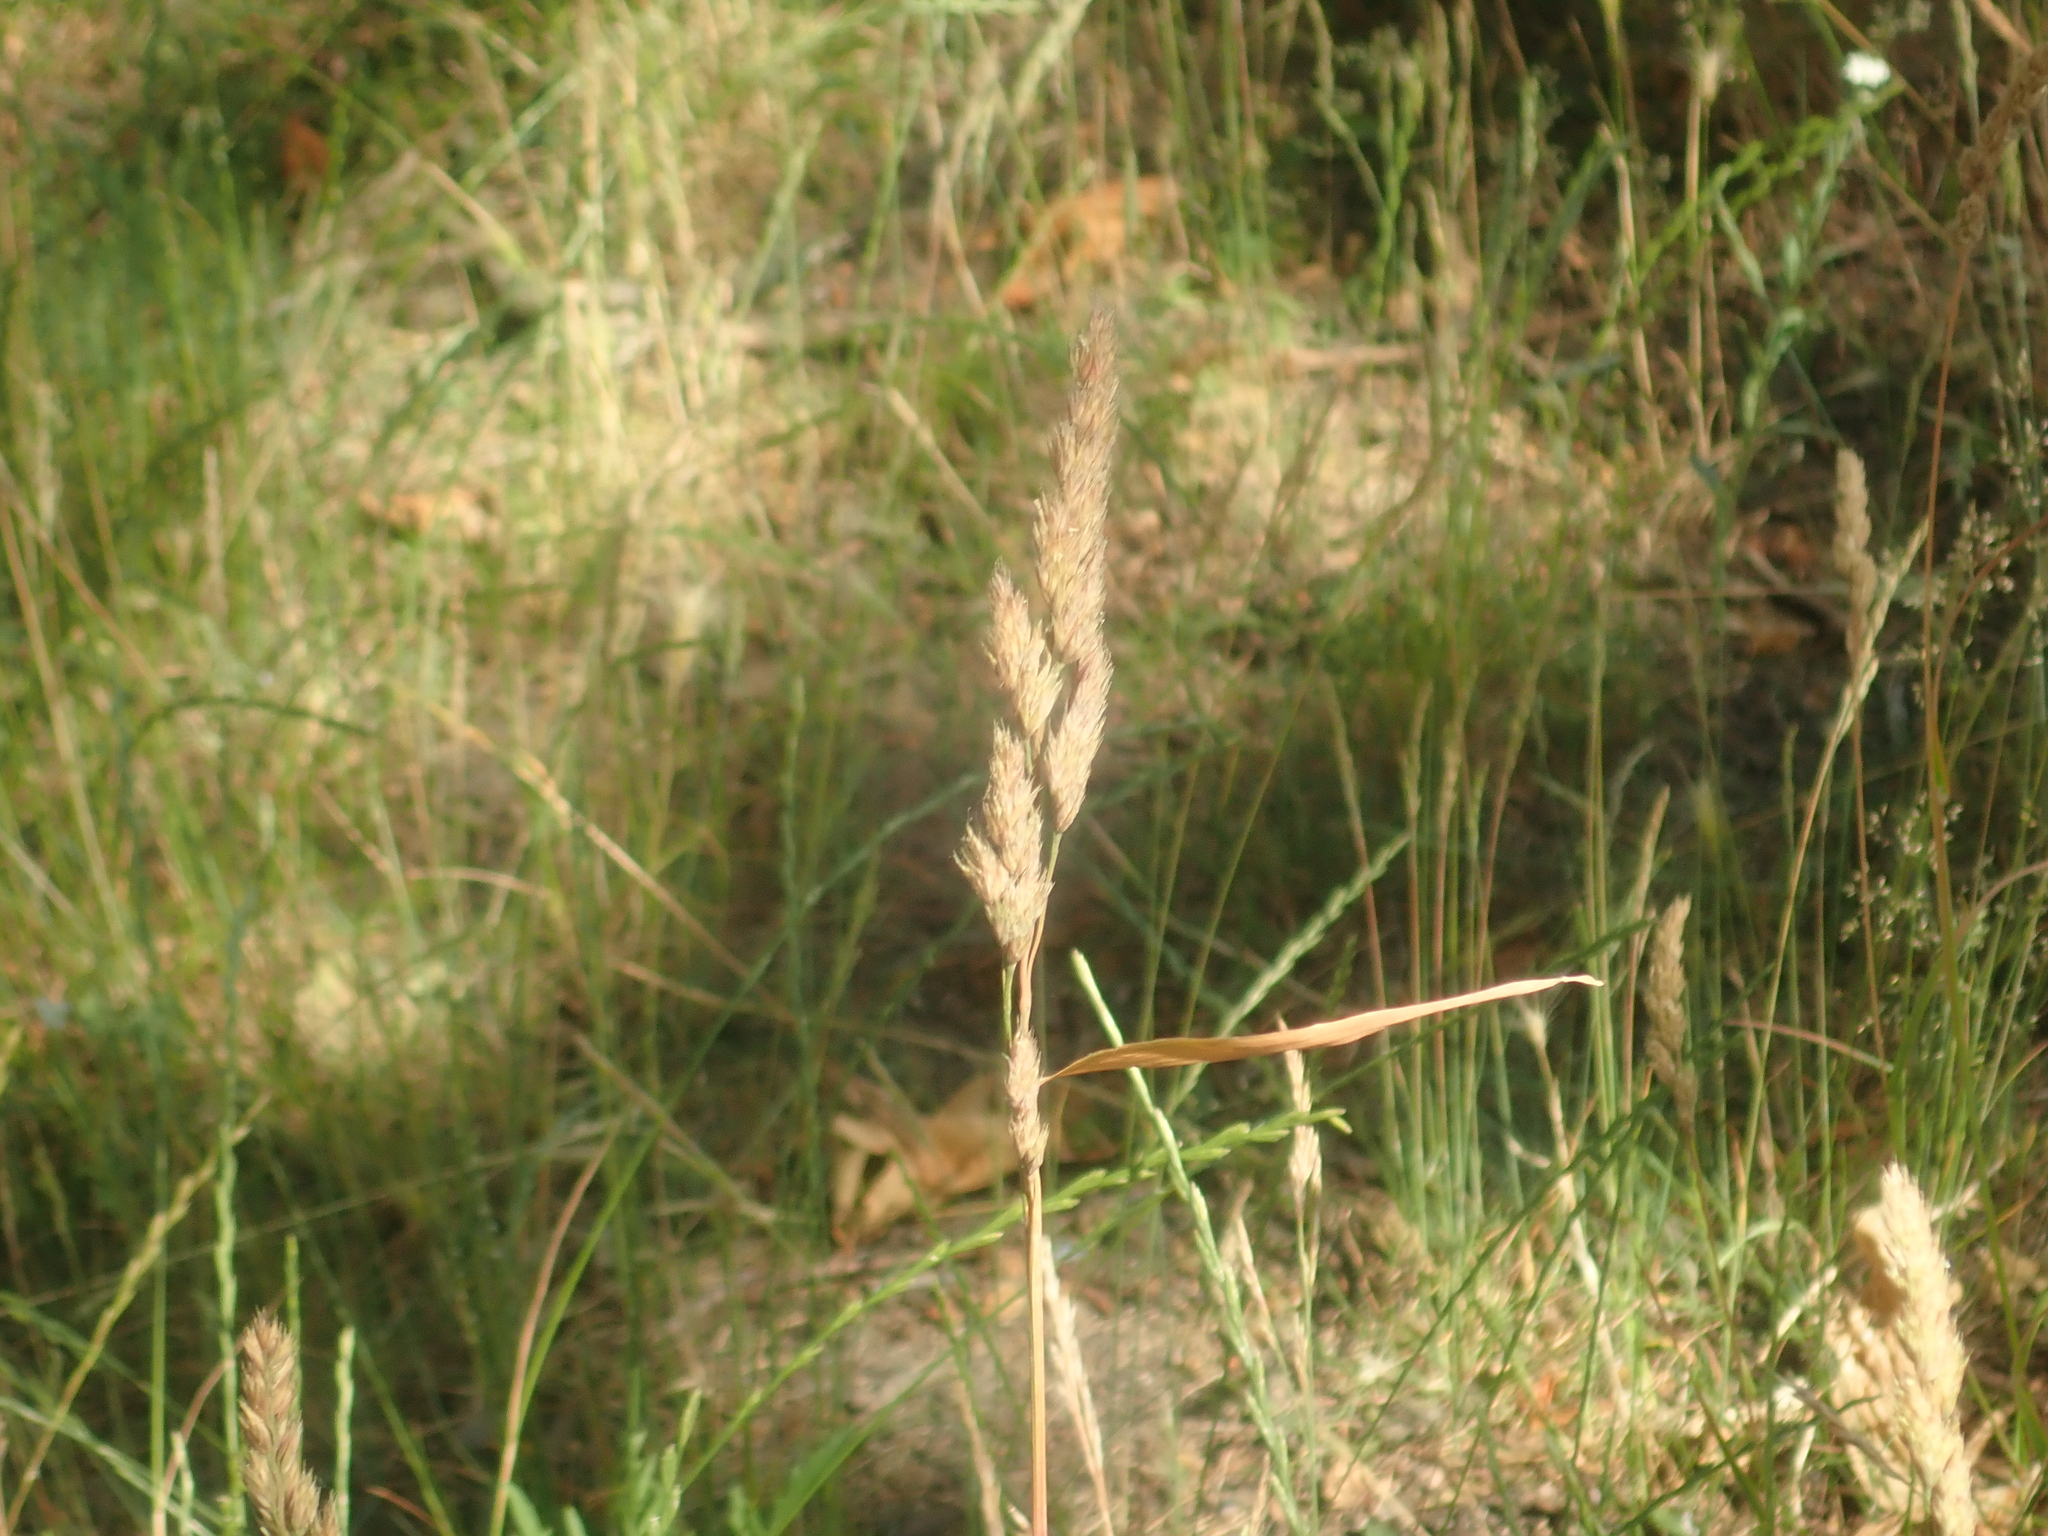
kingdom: Plantae
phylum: Tracheophyta
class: Liliopsida
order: Poales
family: Poaceae
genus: Dactylis
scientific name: Dactylis glomerata
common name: Orchardgrass
